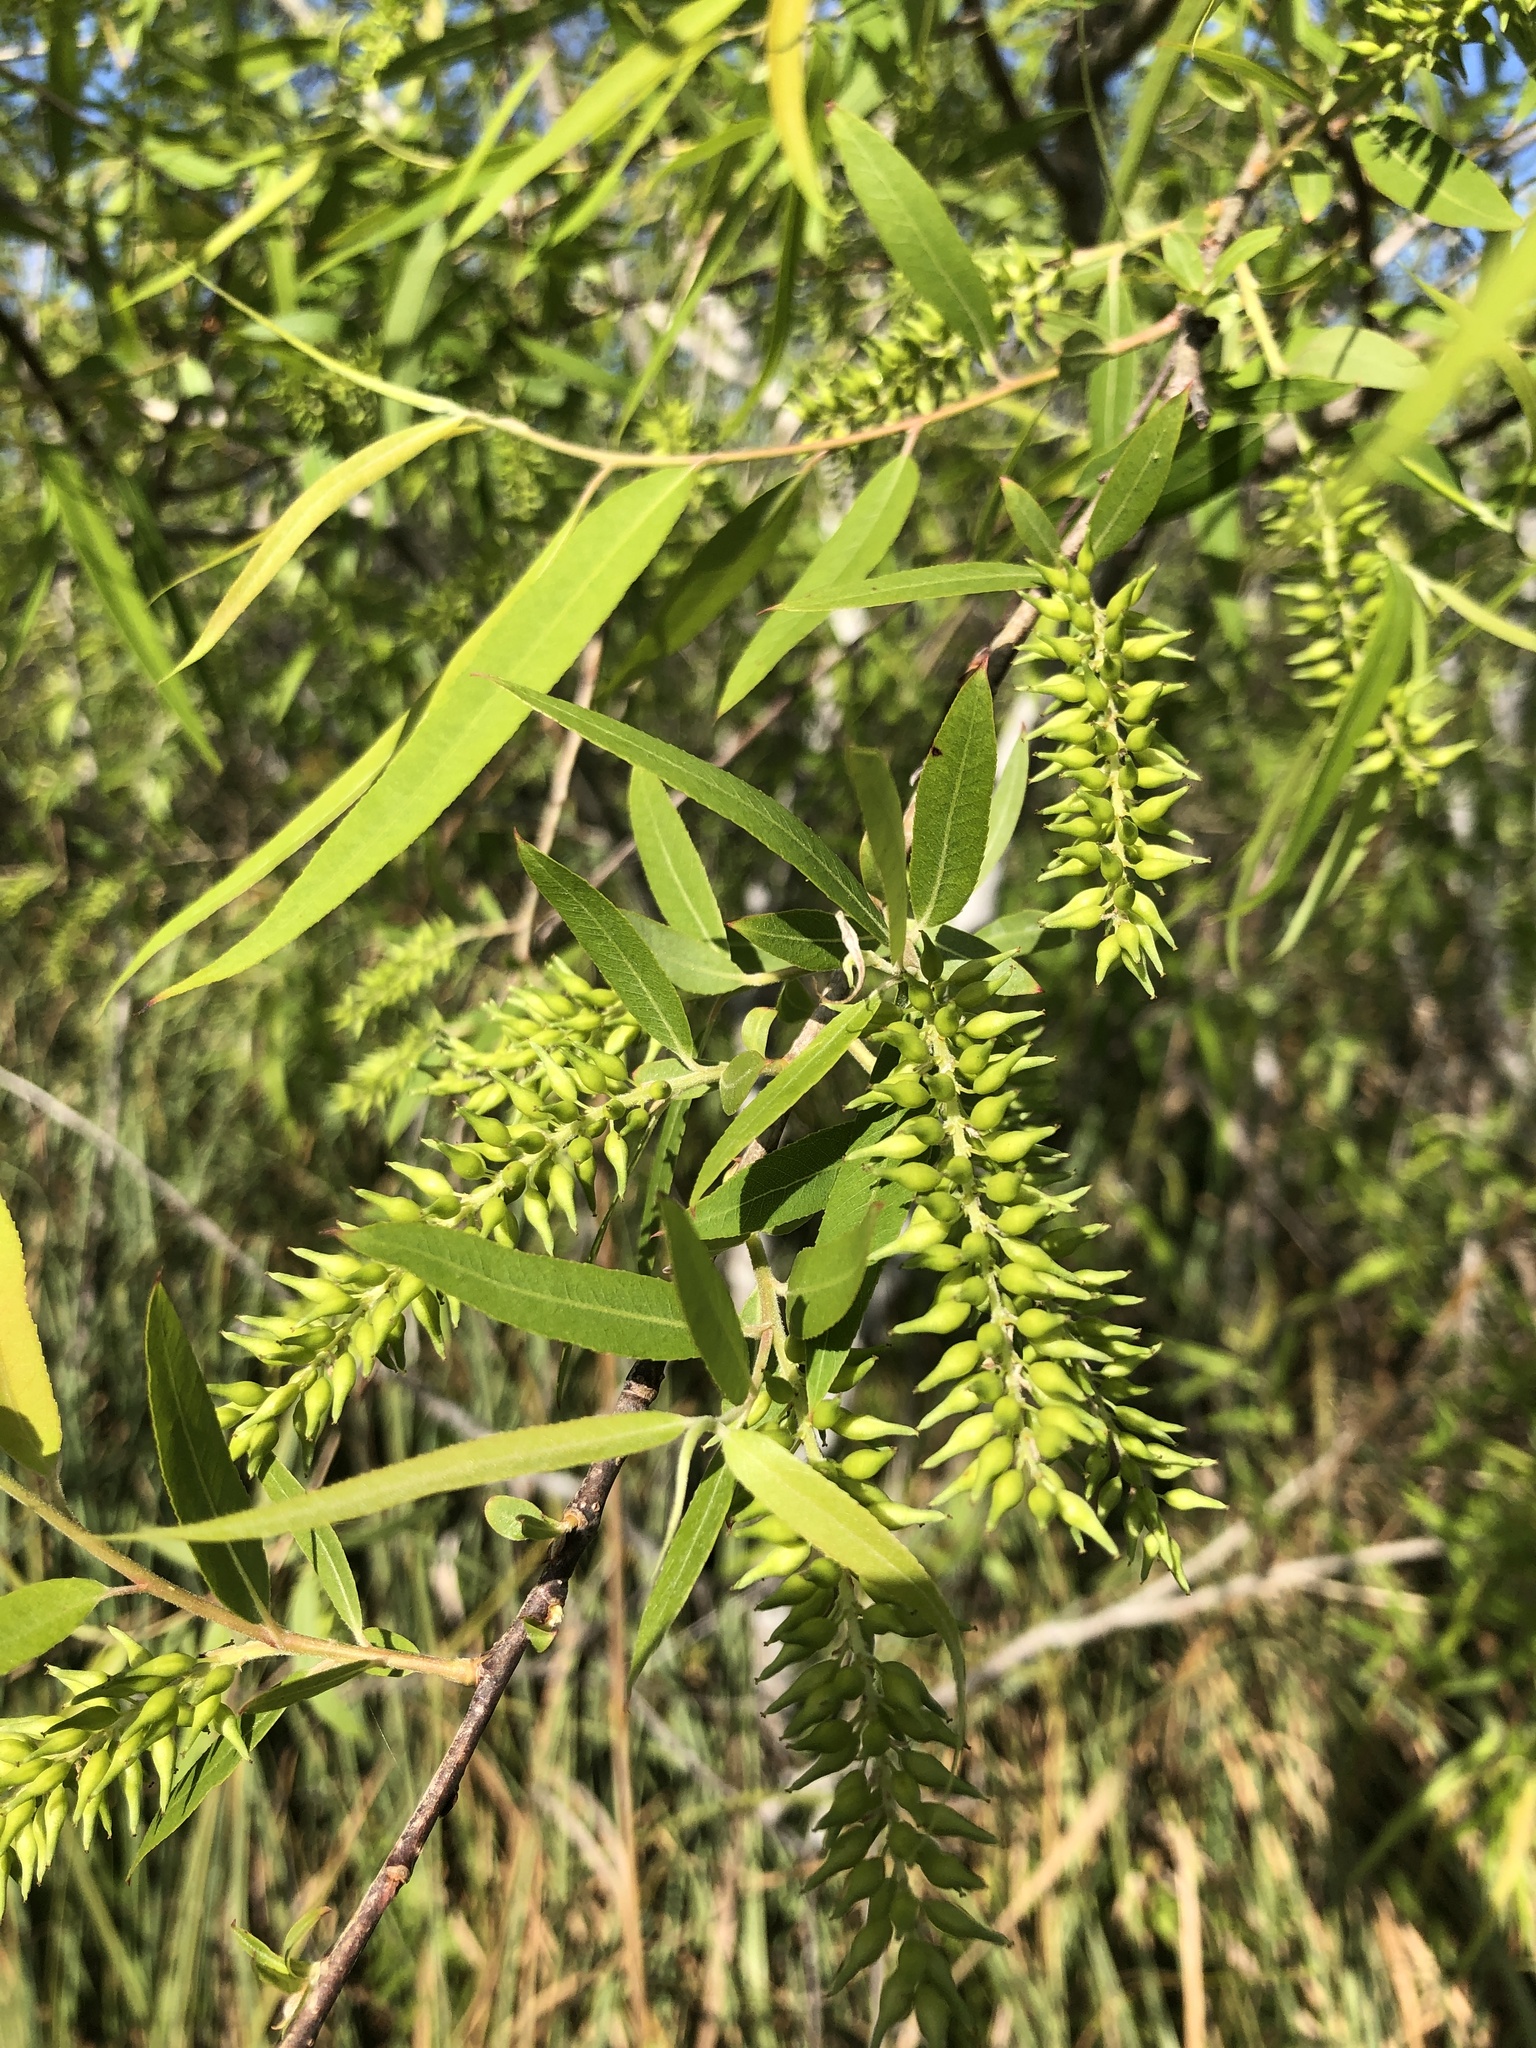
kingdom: Plantae
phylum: Tracheophyta
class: Magnoliopsida
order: Malpighiales
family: Salicaceae
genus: Salix
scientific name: Salix nigra
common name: Black willow
